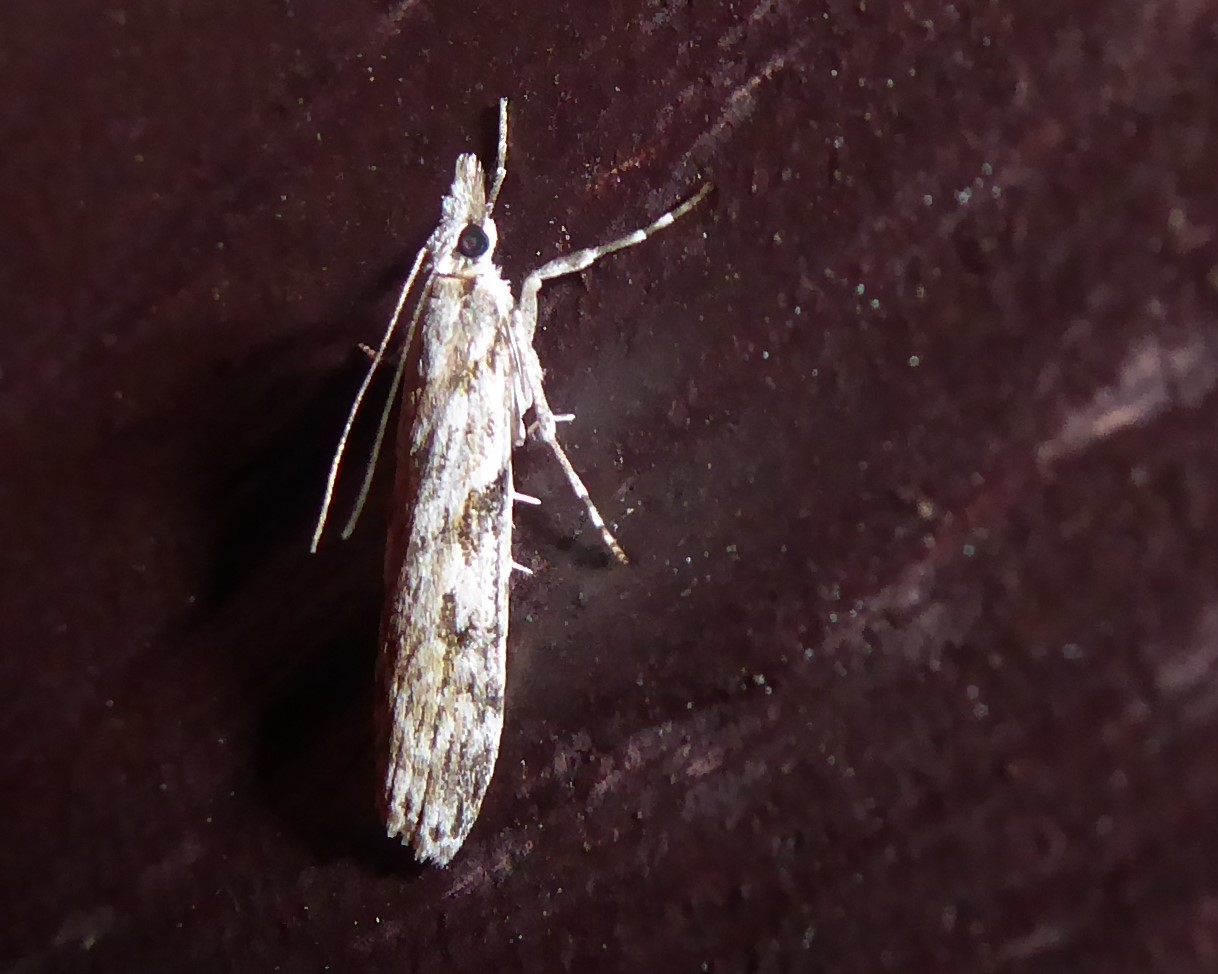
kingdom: Animalia
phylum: Arthropoda
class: Insecta
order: Lepidoptera
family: Crambidae
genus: Scoparia
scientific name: Scoparia halopis
